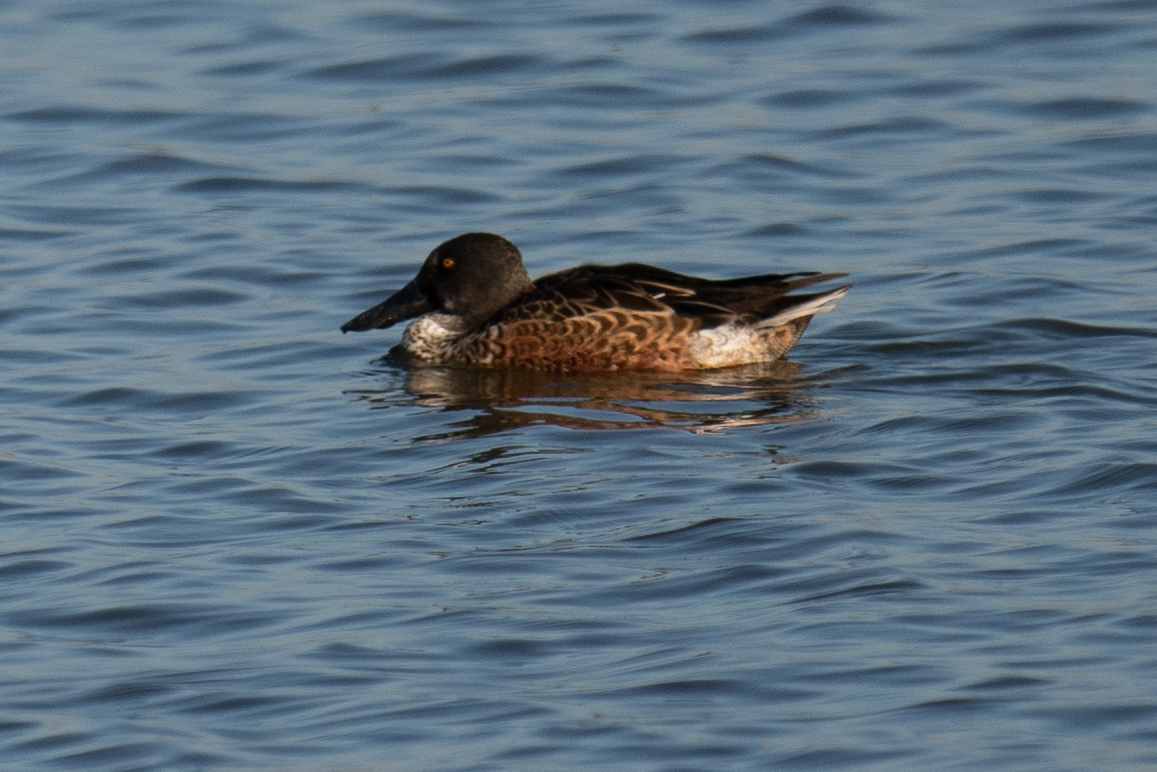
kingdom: Animalia
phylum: Chordata
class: Aves
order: Anseriformes
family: Anatidae
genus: Spatula
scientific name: Spatula clypeata
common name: Northern shoveler
